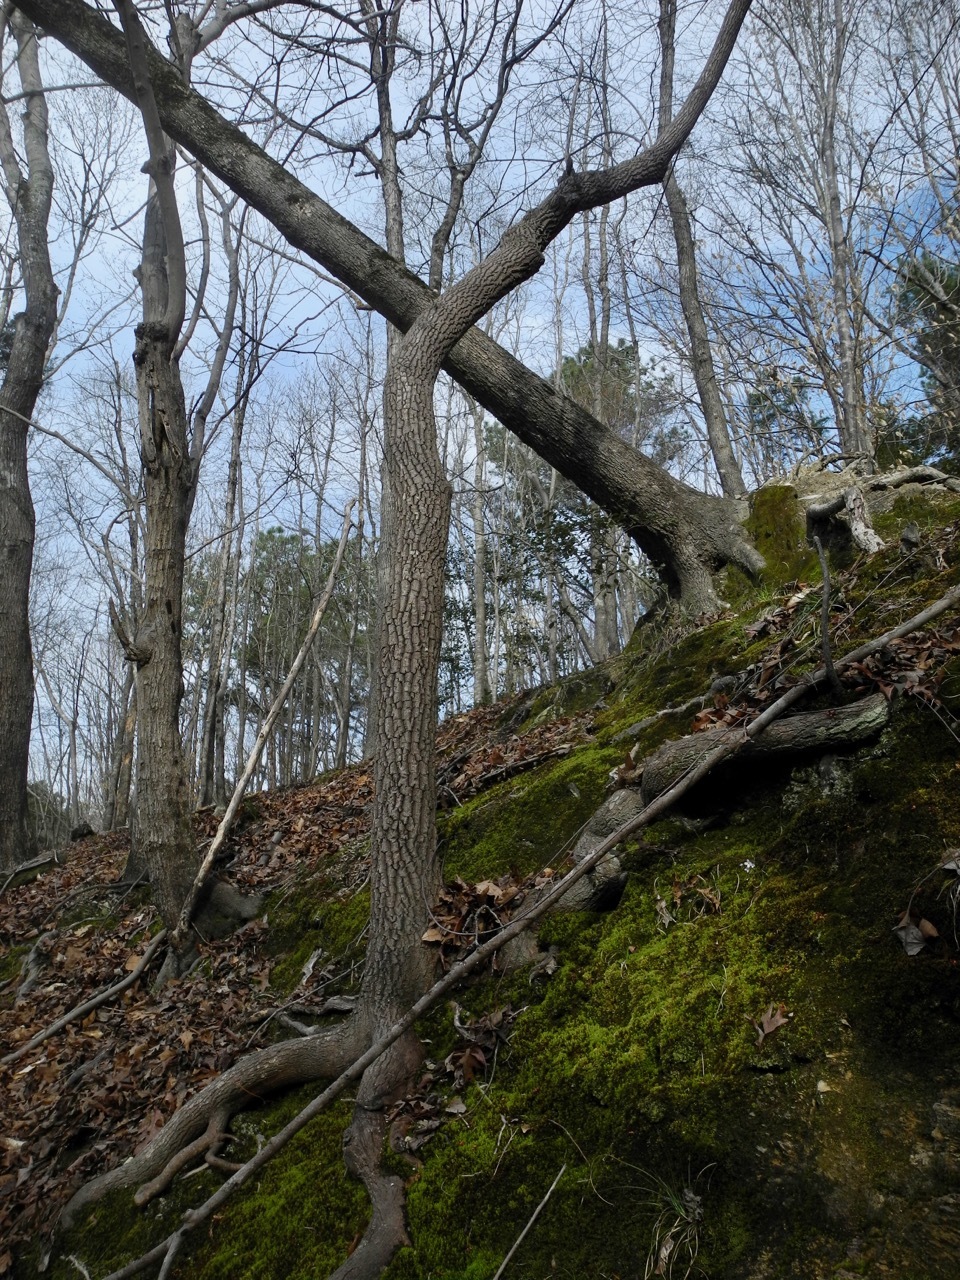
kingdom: Plantae
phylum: Tracheophyta
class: Magnoliopsida
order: Ericales
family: Ericaceae
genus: Oxydendrum
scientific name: Oxydendrum arboreum
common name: Sourwood
